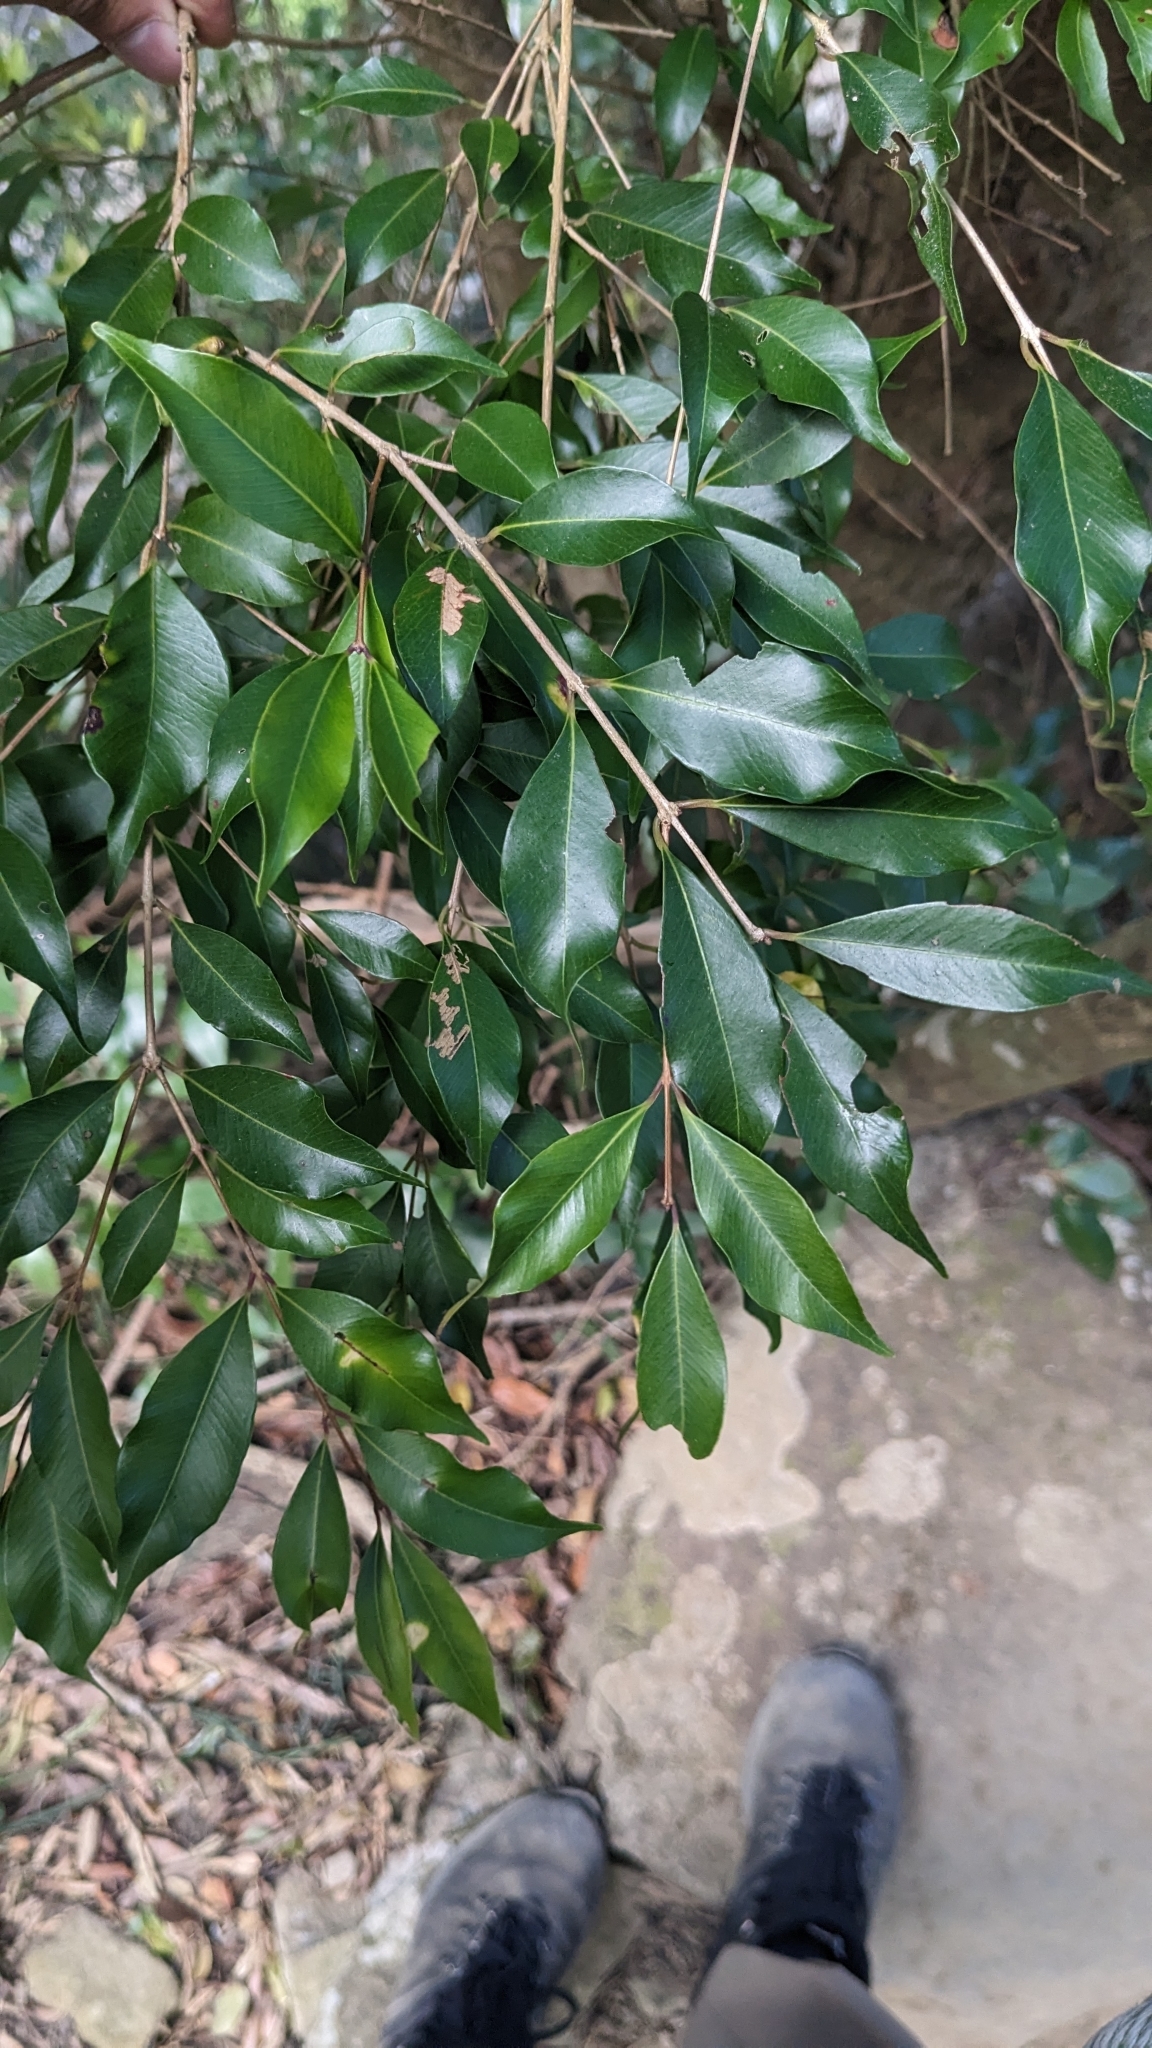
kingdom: Plantae
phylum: Tracheophyta
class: Magnoliopsida
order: Myrtales
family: Myrtaceae
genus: Syzygium
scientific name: Syzygium formosanum
